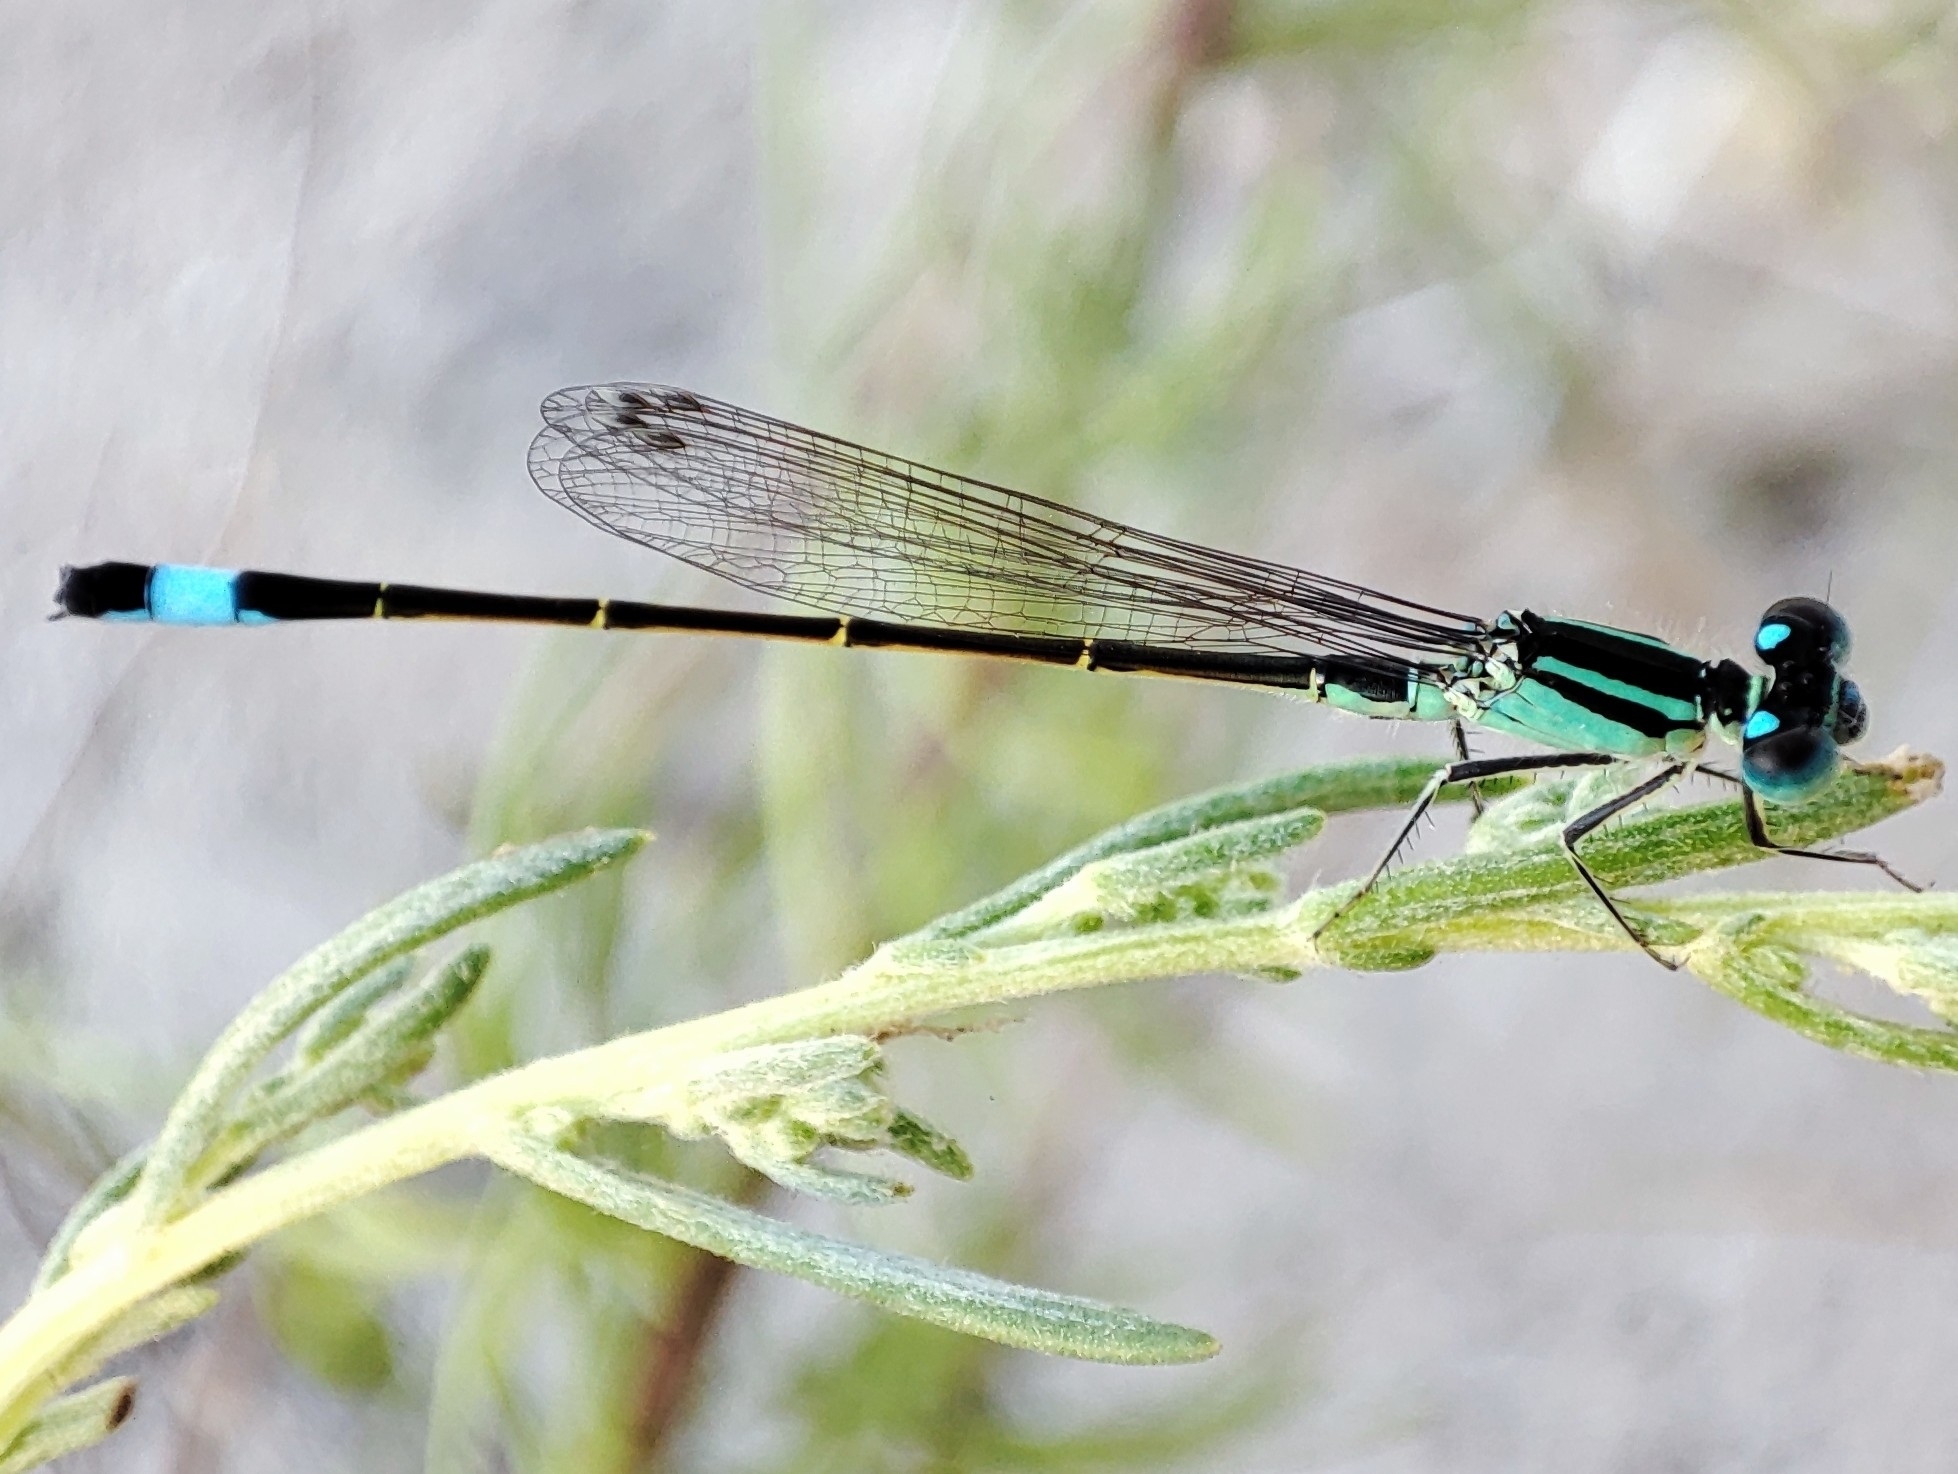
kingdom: Animalia
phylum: Arthropoda
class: Insecta
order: Odonata
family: Coenagrionidae
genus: Ischnura
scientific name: Ischnura elegans
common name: Blue-tailed damselfly
